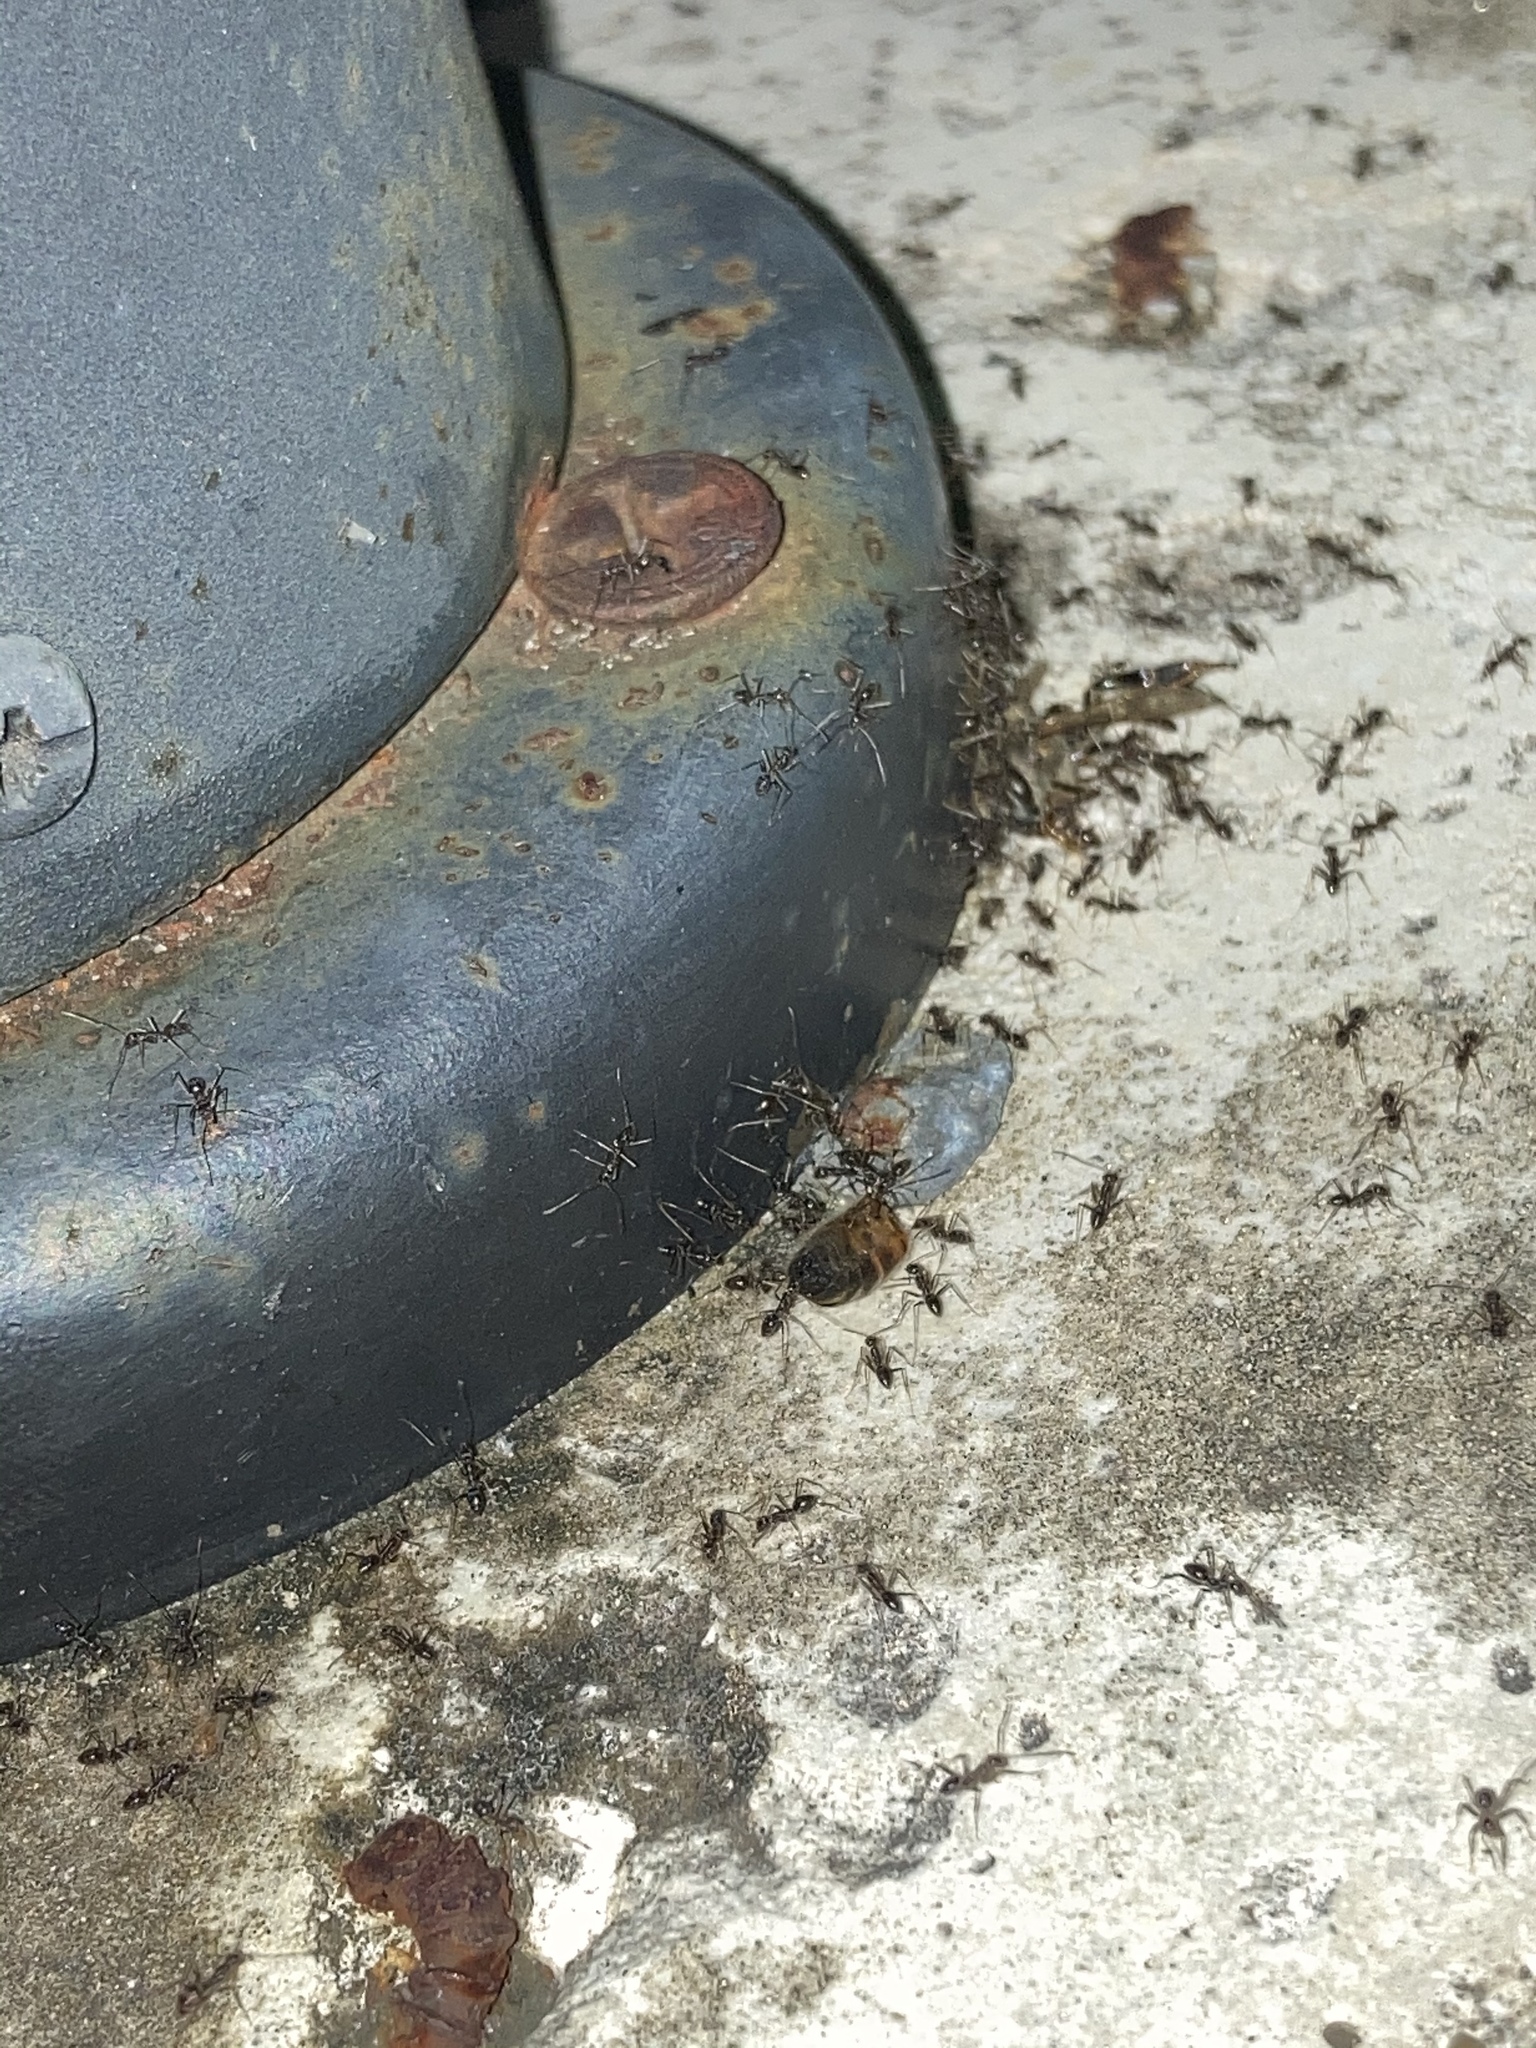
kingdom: Animalia
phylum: Arthropoda
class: Insecta
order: Hymenoptera
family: Apidae
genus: Apis
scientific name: Apis mellifera
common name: Honey bee
